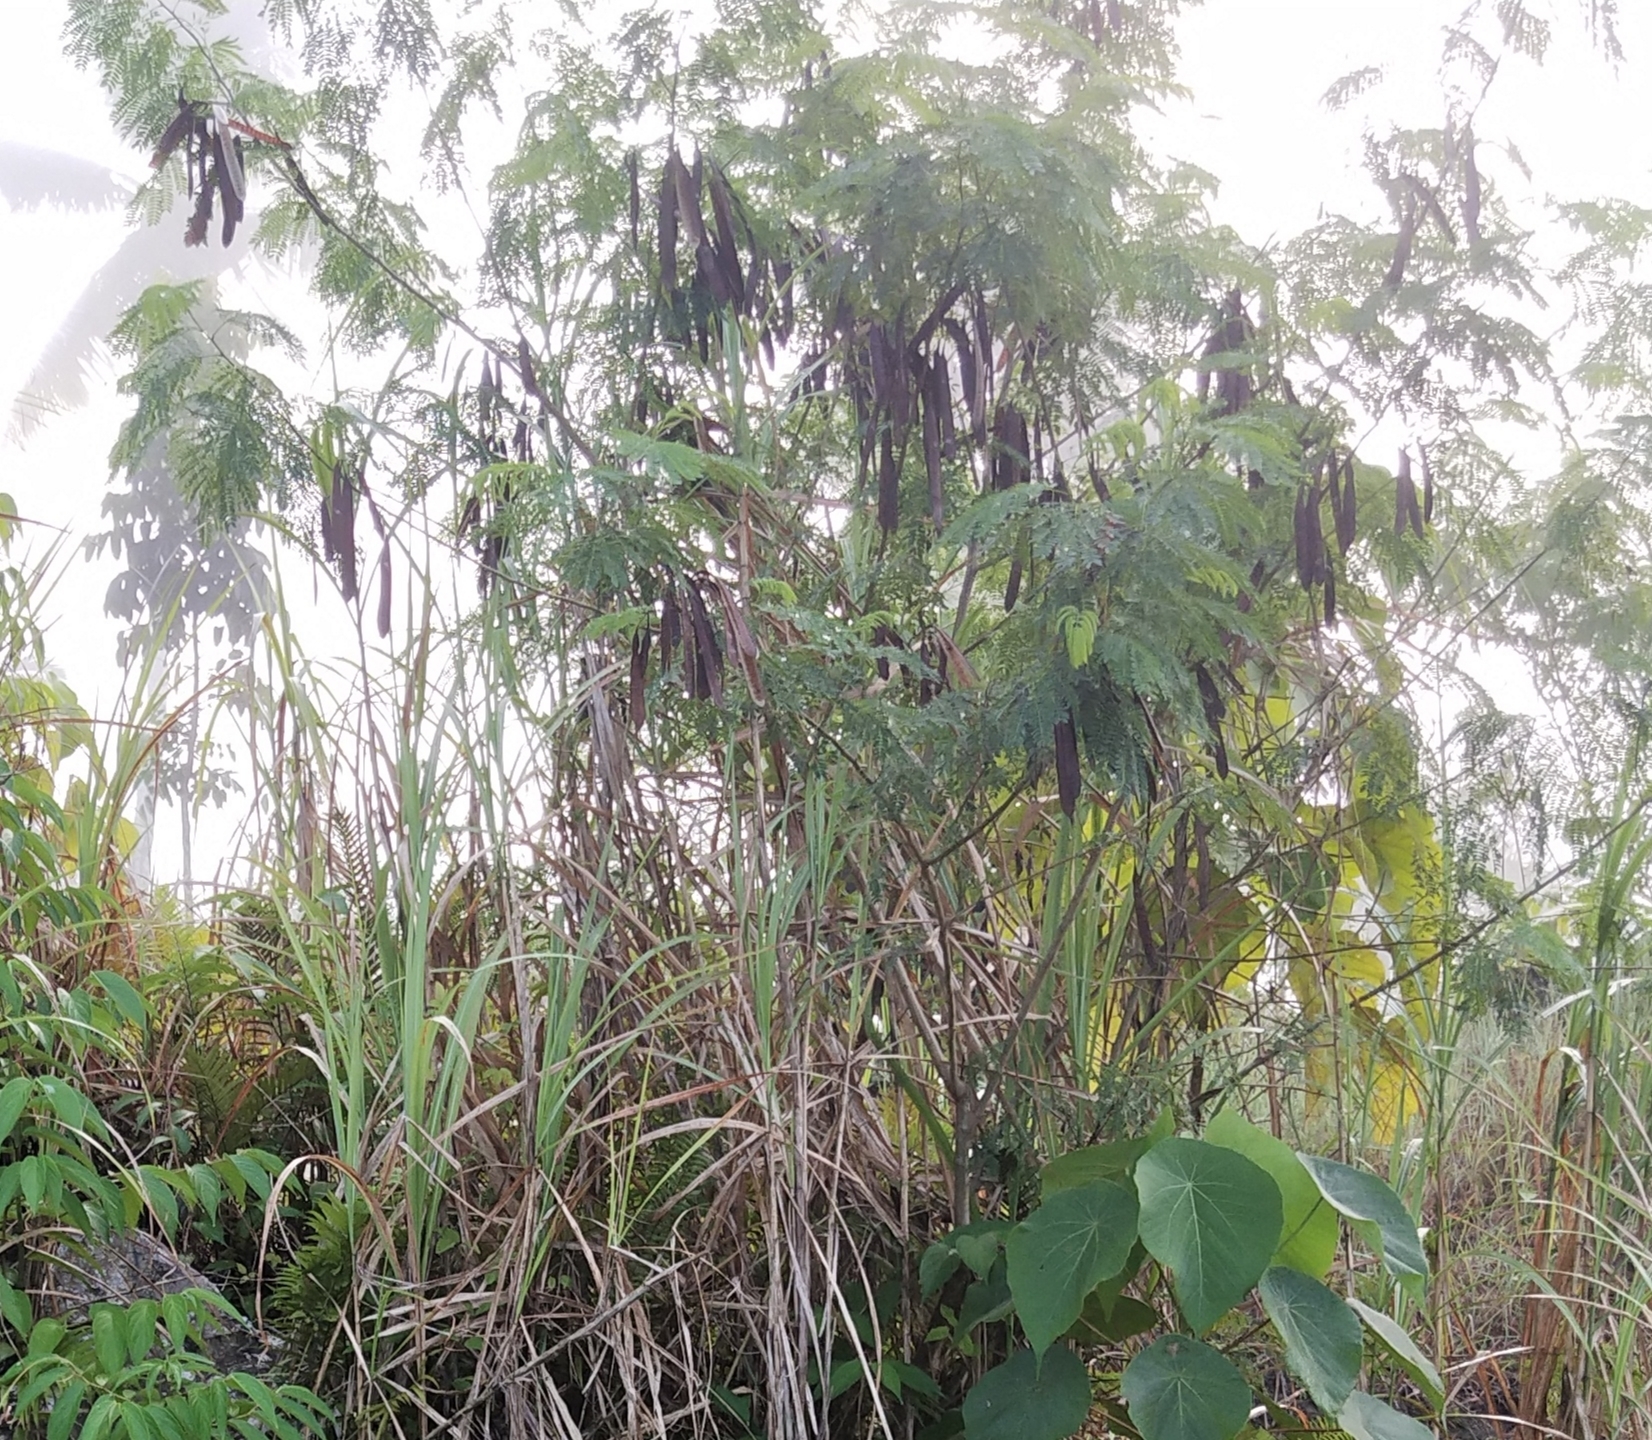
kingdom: Plantae
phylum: Tracheophyta
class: Magnoliopsida
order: Fabales
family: Fabaceae
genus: Leucaena
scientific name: Leucaena leucocephala
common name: White leadtree
